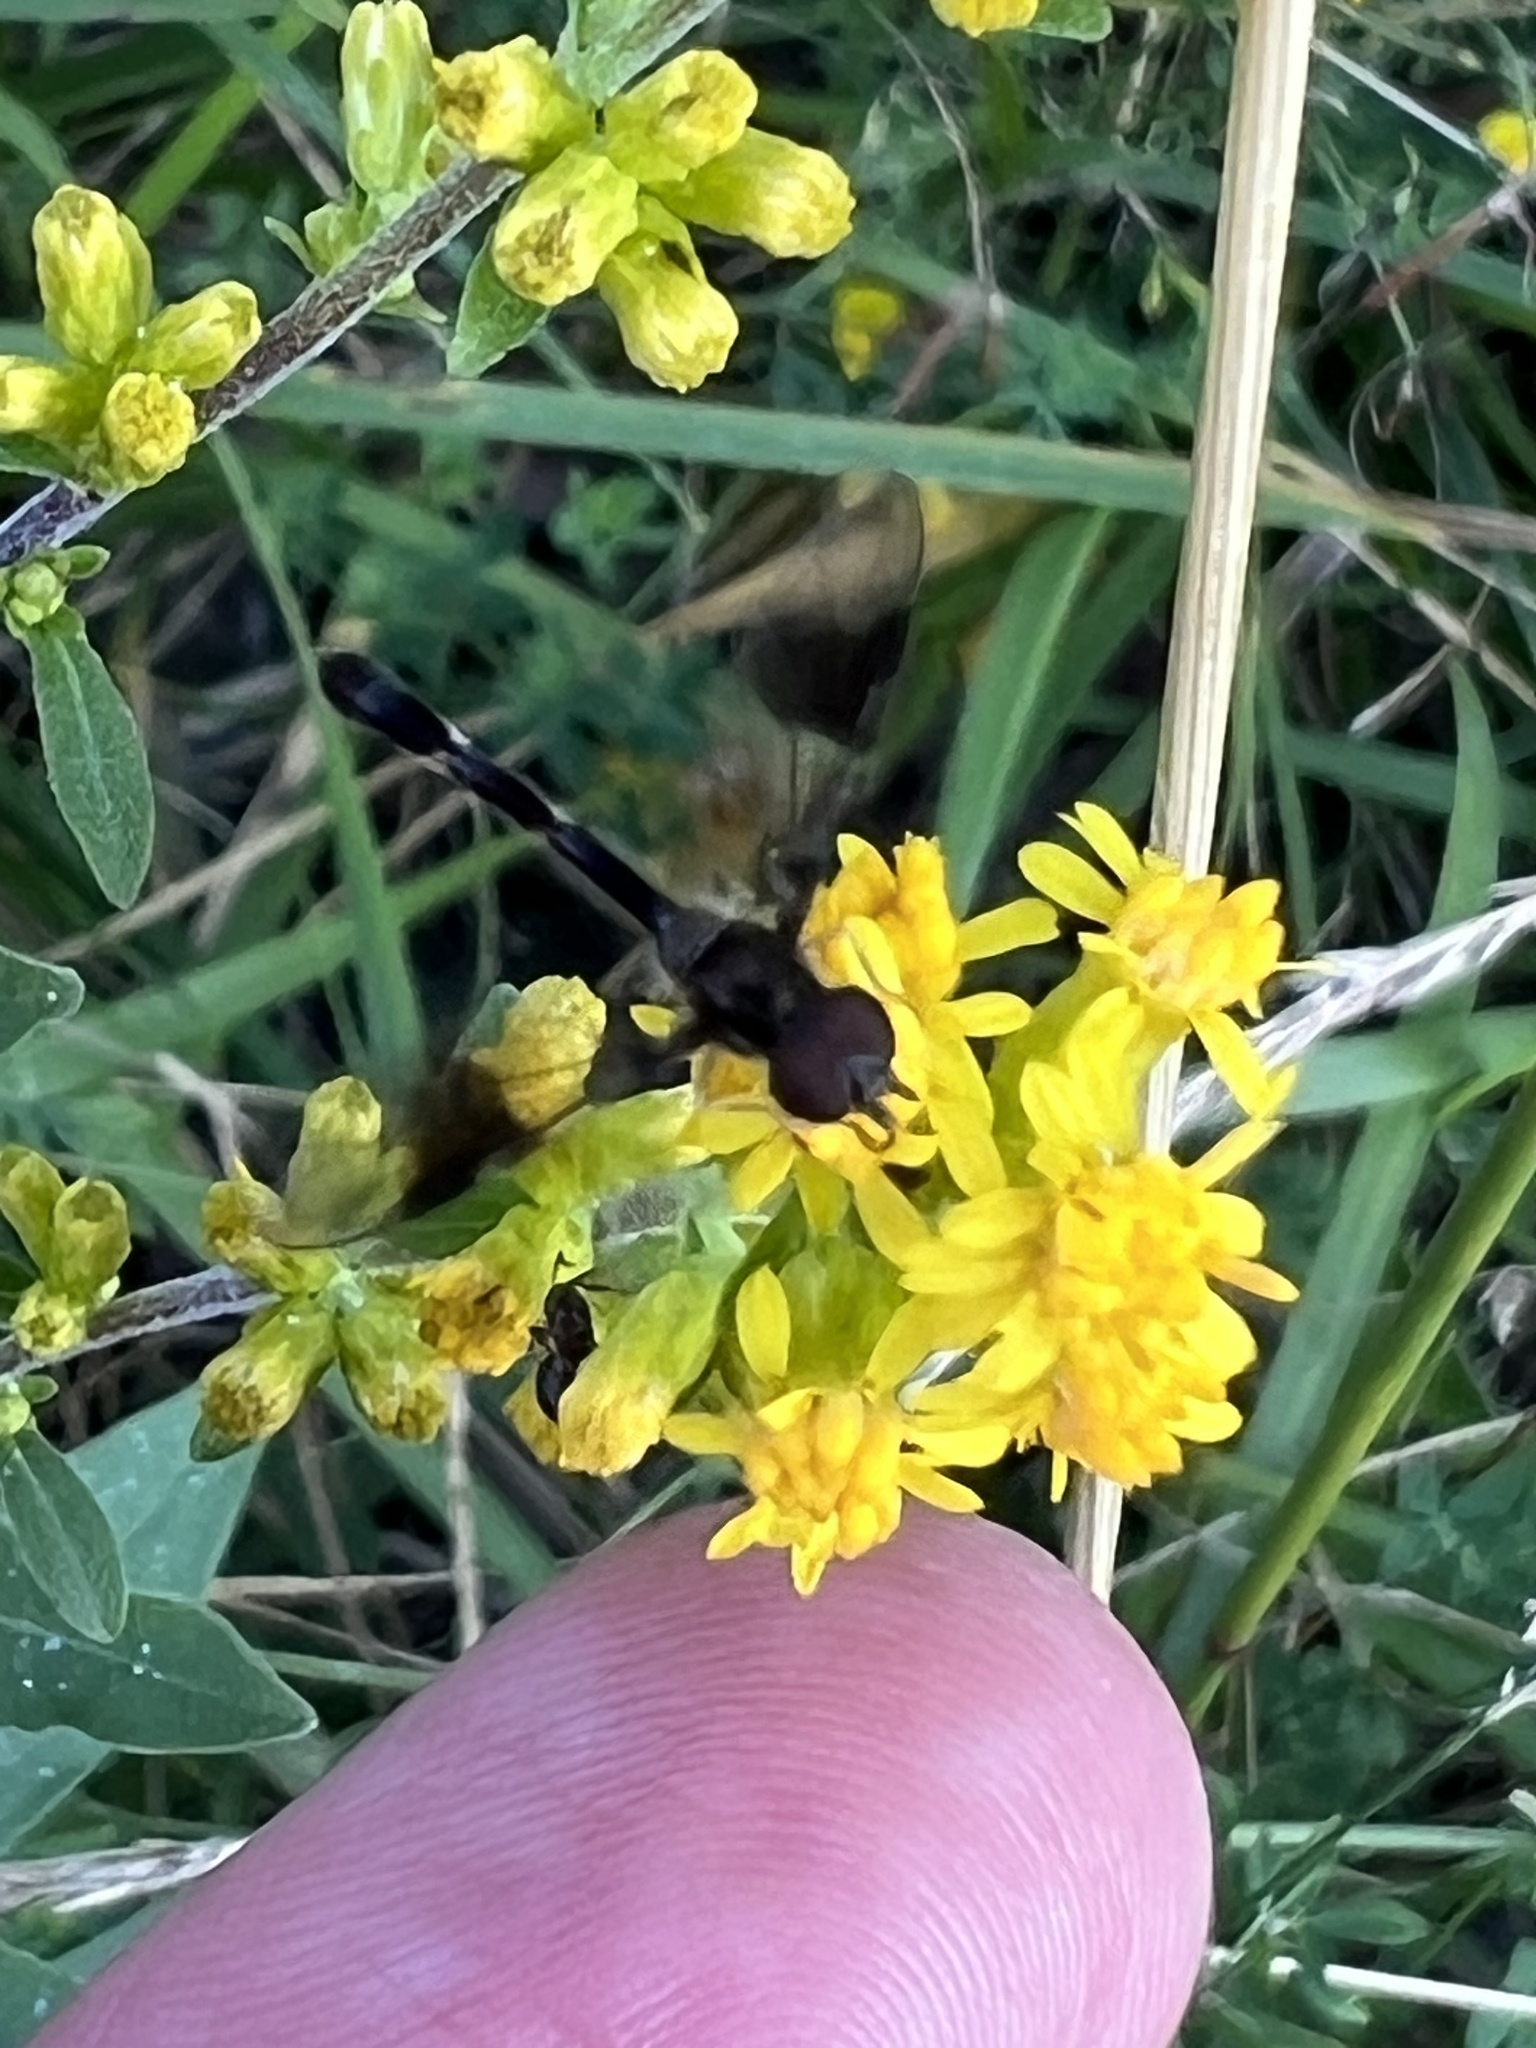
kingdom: Animalia
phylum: Arthropoda
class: Insecta
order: Diptera
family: Syrphidae
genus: Hypocritanus
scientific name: Hypocritanus fascipennis
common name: Eastern band-winged hover fly
